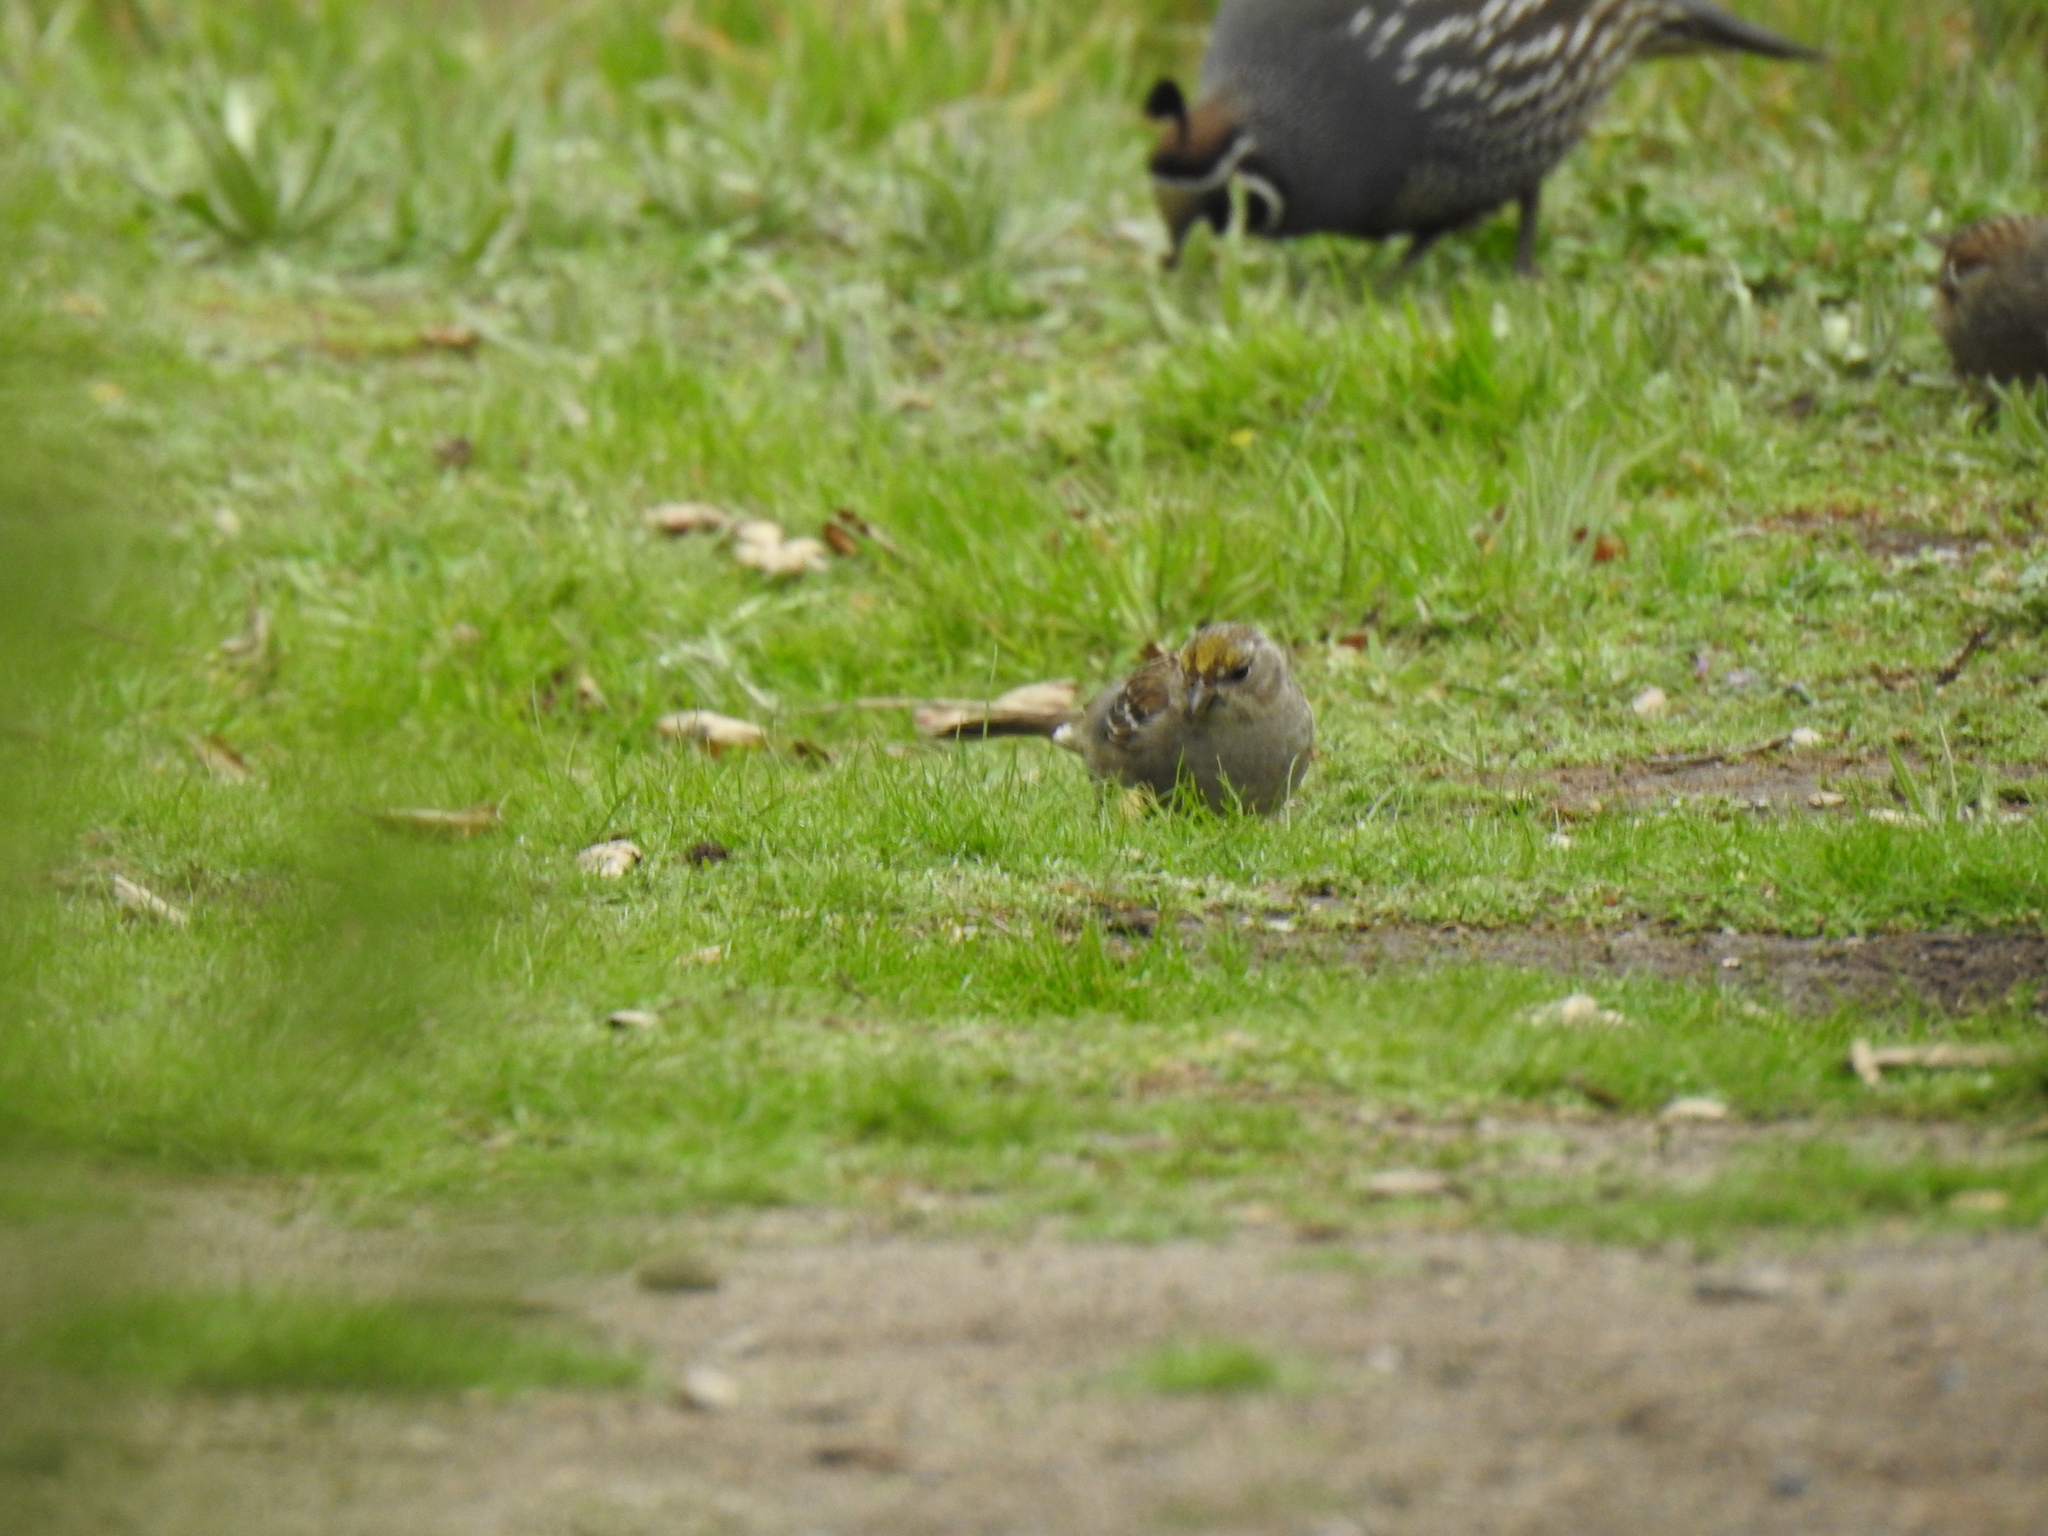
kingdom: Animalia
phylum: Chordata
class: Aves
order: Passeriformes
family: Passerellidae
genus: Zonotrichia
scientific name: Zonotrichia atricapilla
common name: Golden-crowned sparrow
